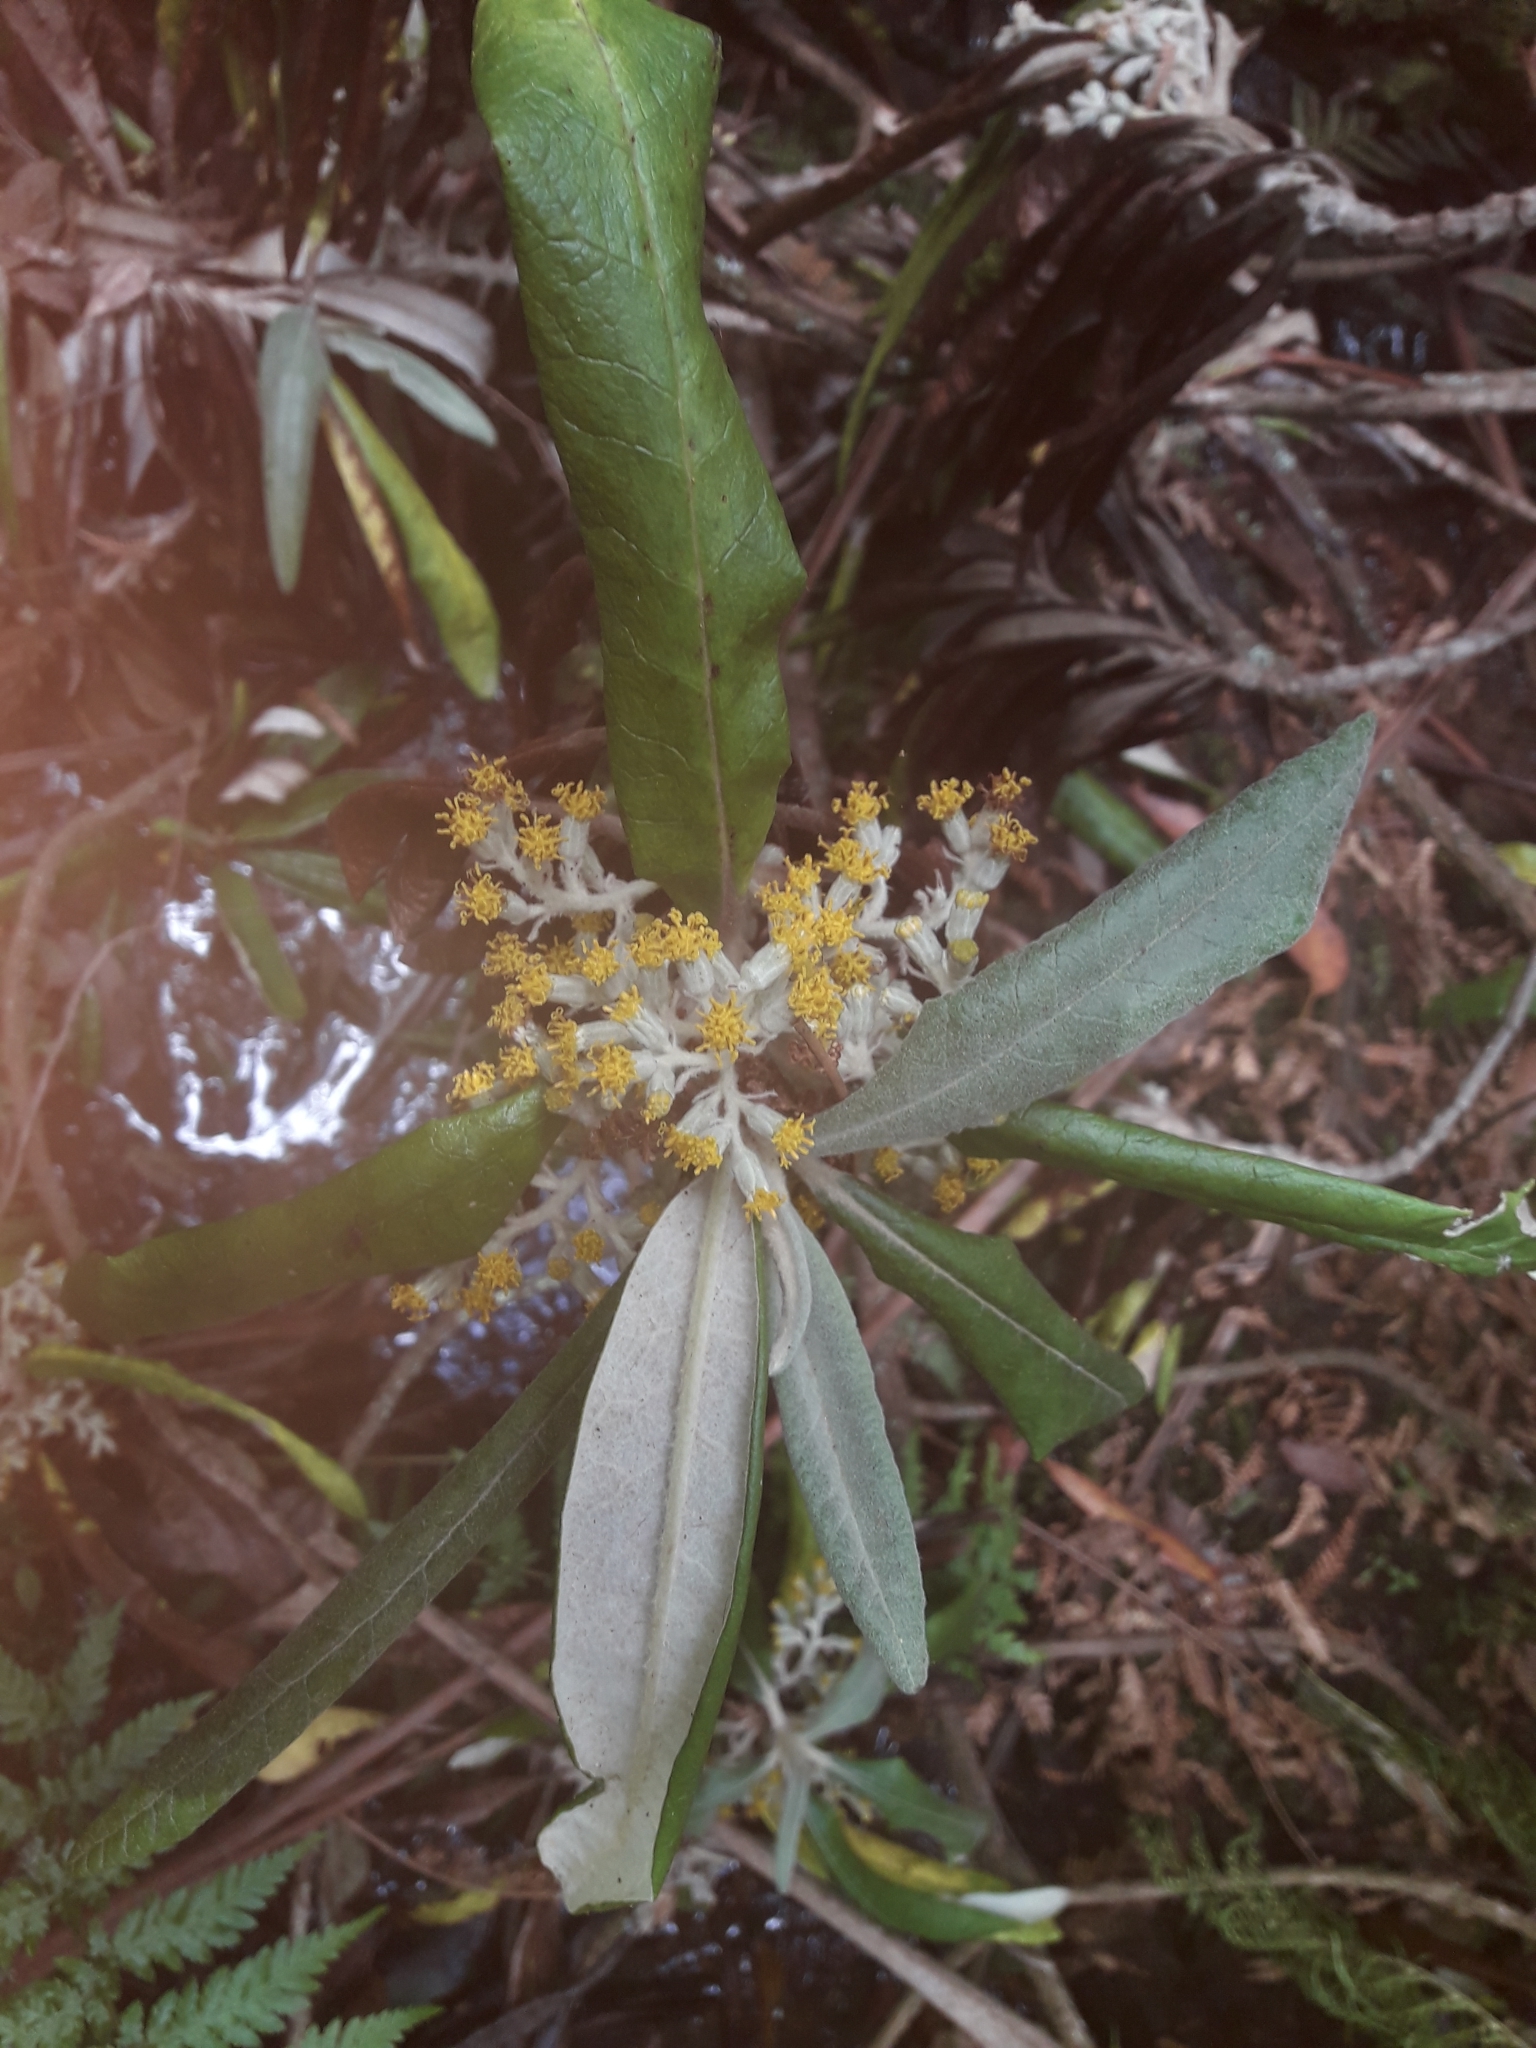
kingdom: Plantae
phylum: Tracheophyta
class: Magnoliopsida
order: Asterales
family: Asteraceae
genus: Bedfordia
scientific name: Bedfordia arborescens
